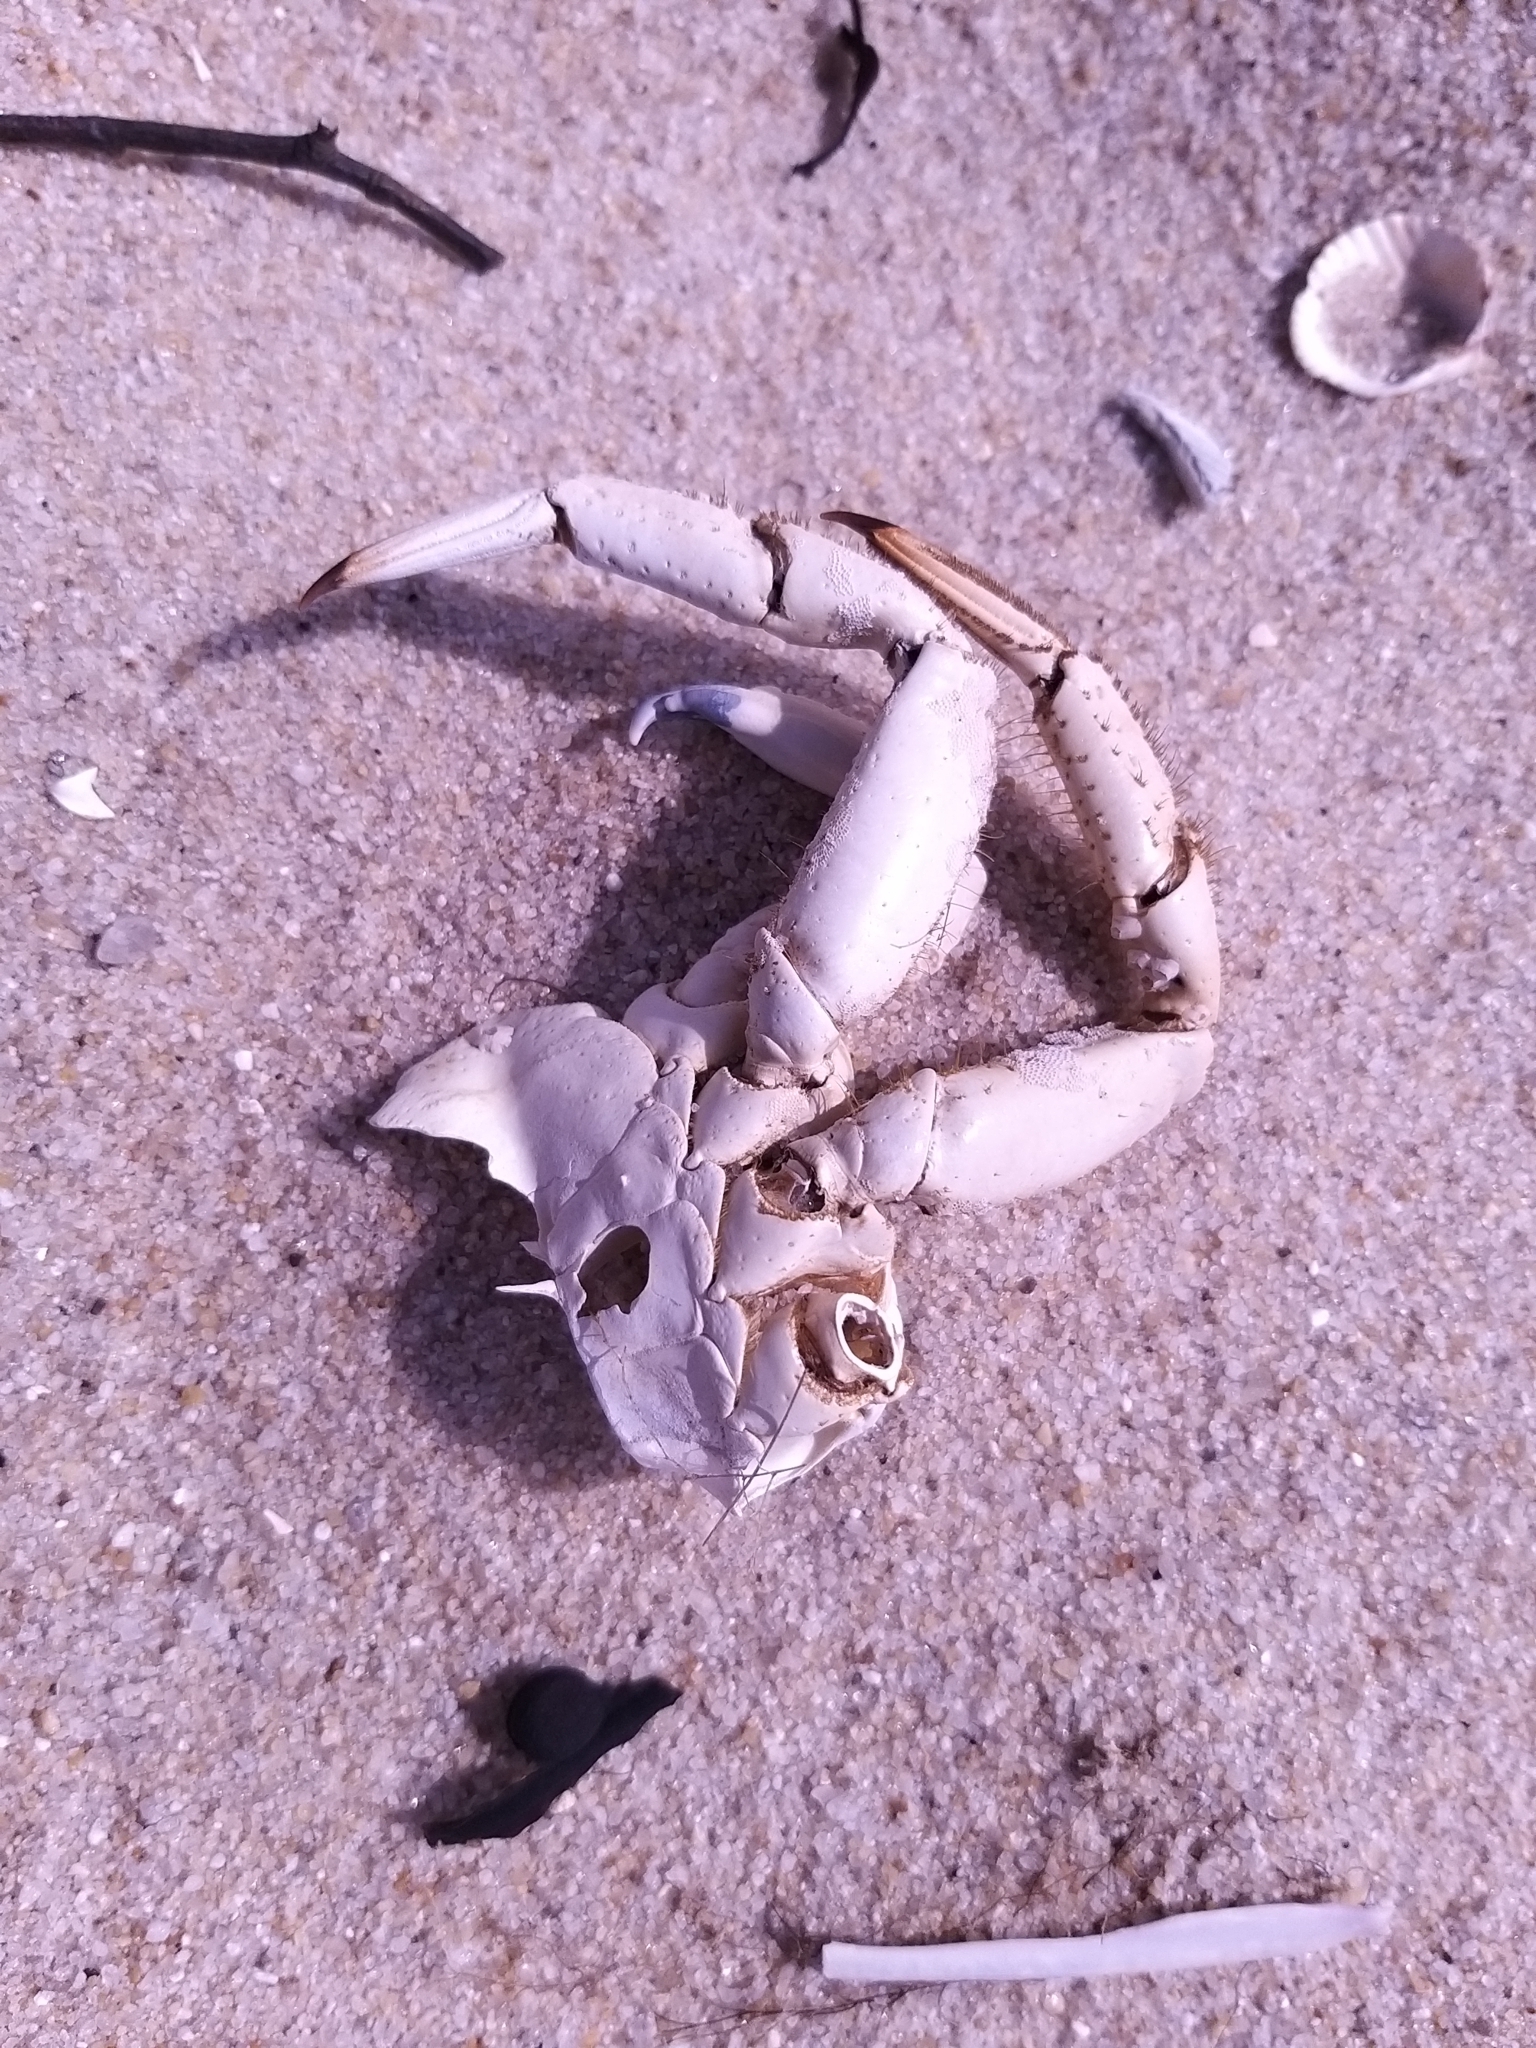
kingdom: Animalia
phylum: Arthropoda
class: Malacostraca
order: Decapoda
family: Cancridae
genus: Cancer
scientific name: Cancer pagurus
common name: Edible crab
